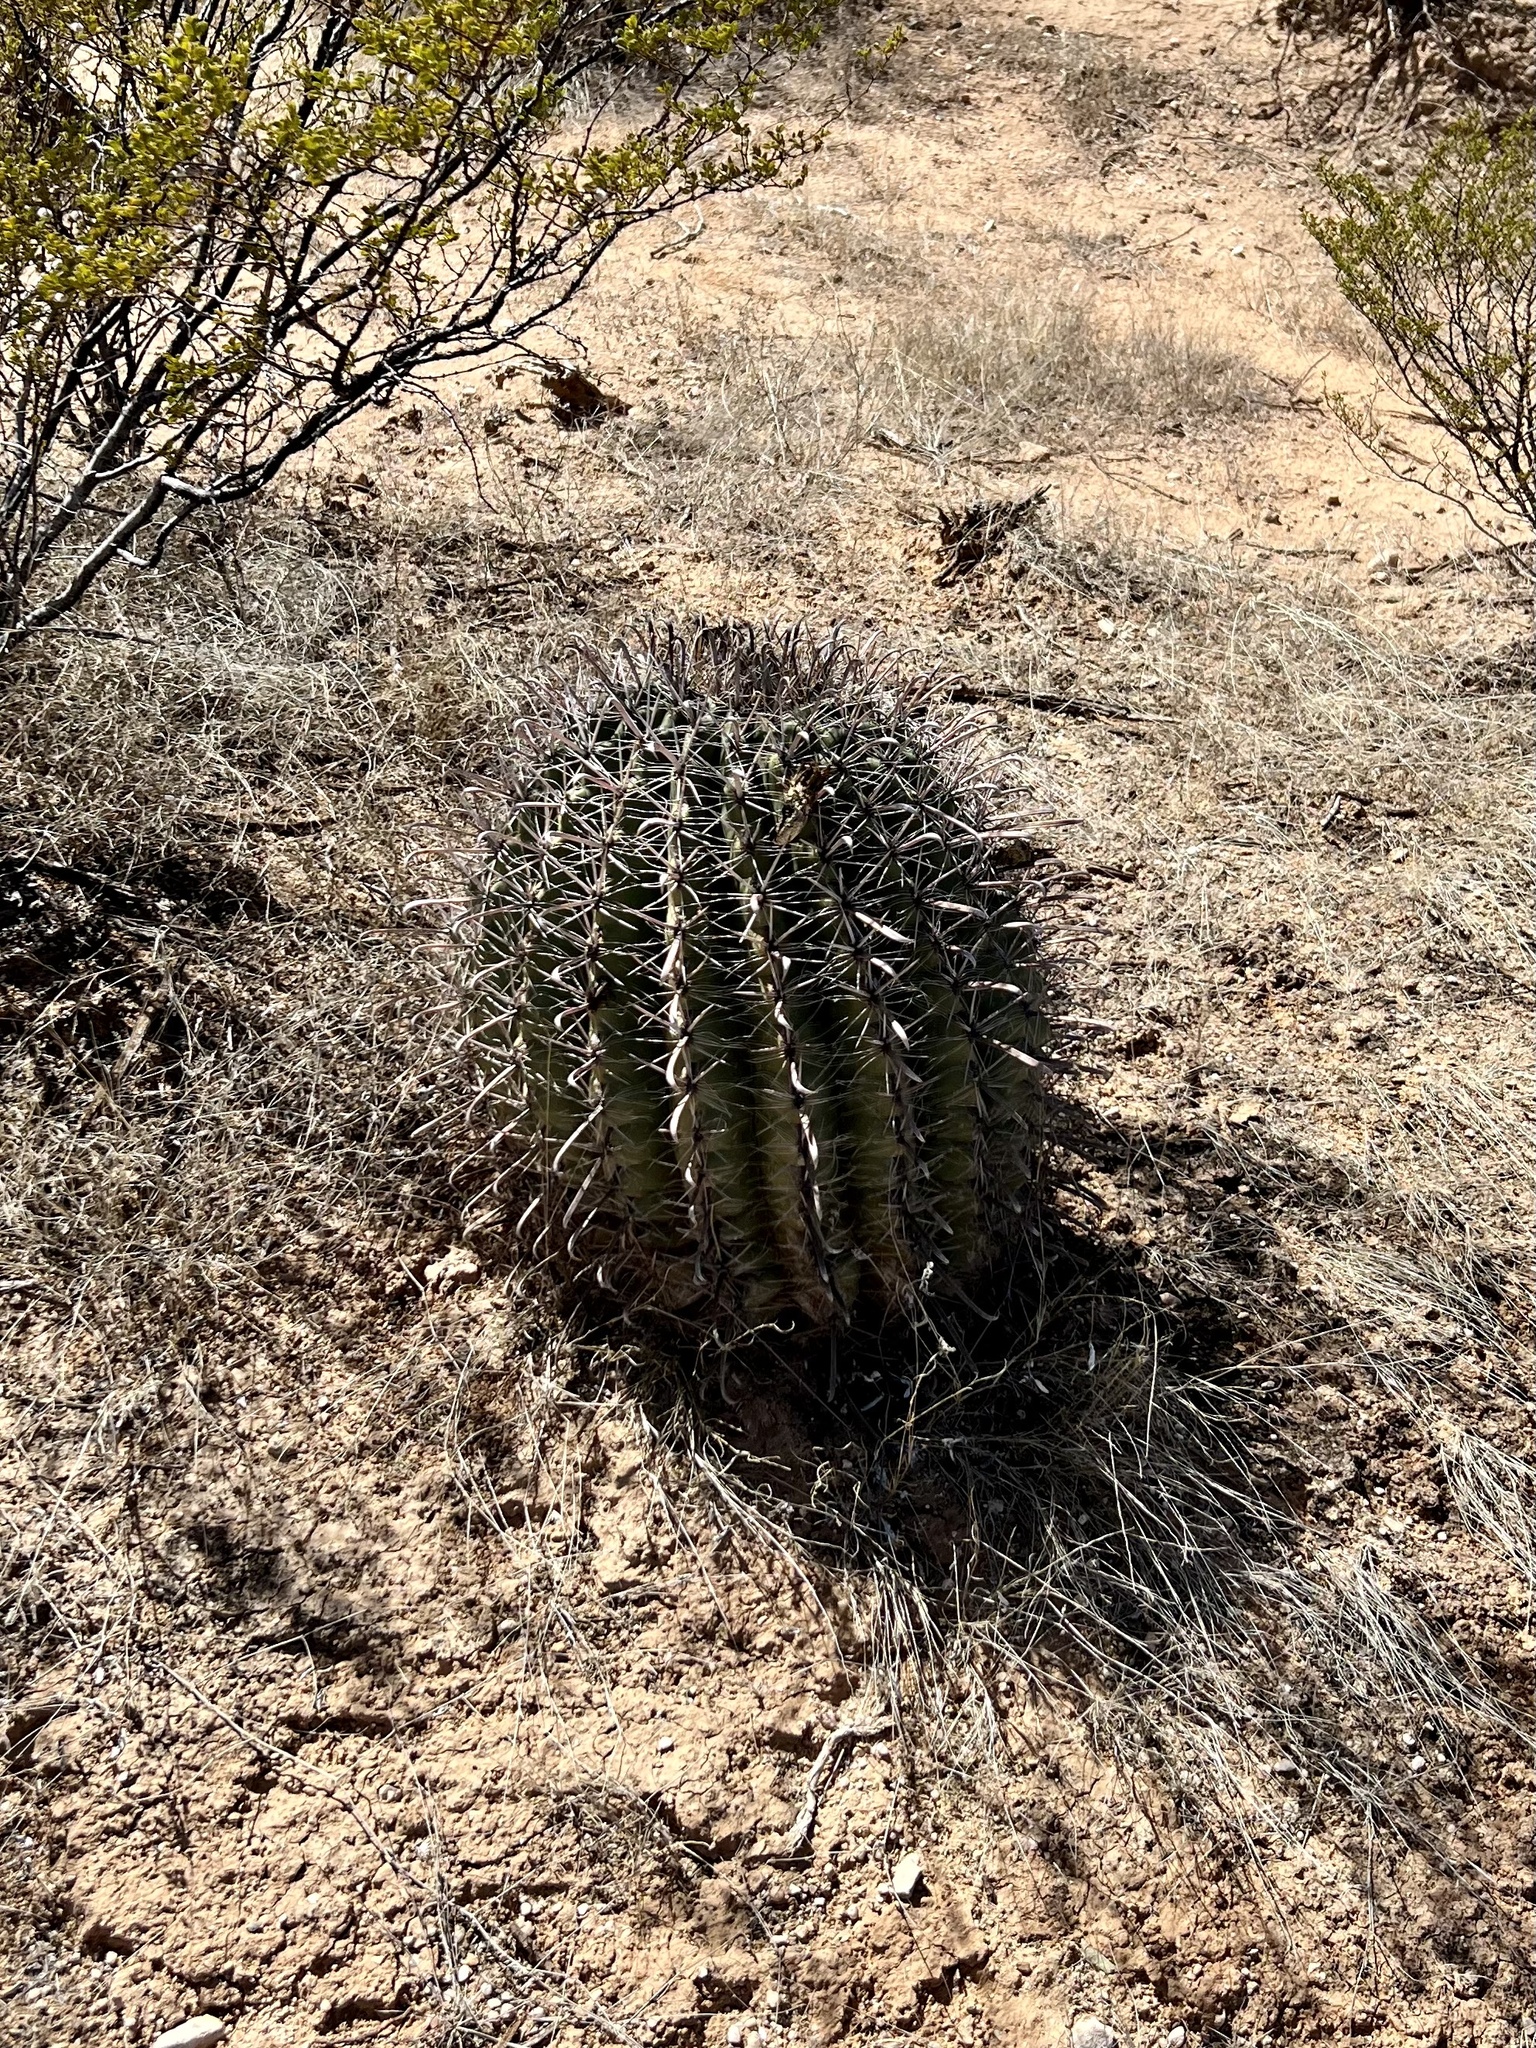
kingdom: Plantae
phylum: Tracheophyta
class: Magnoliopsida
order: Caryophyllales
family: Cactaceae
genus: Ferocactus
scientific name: Ferocactus wislizeni
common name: Candy barrel cactus
